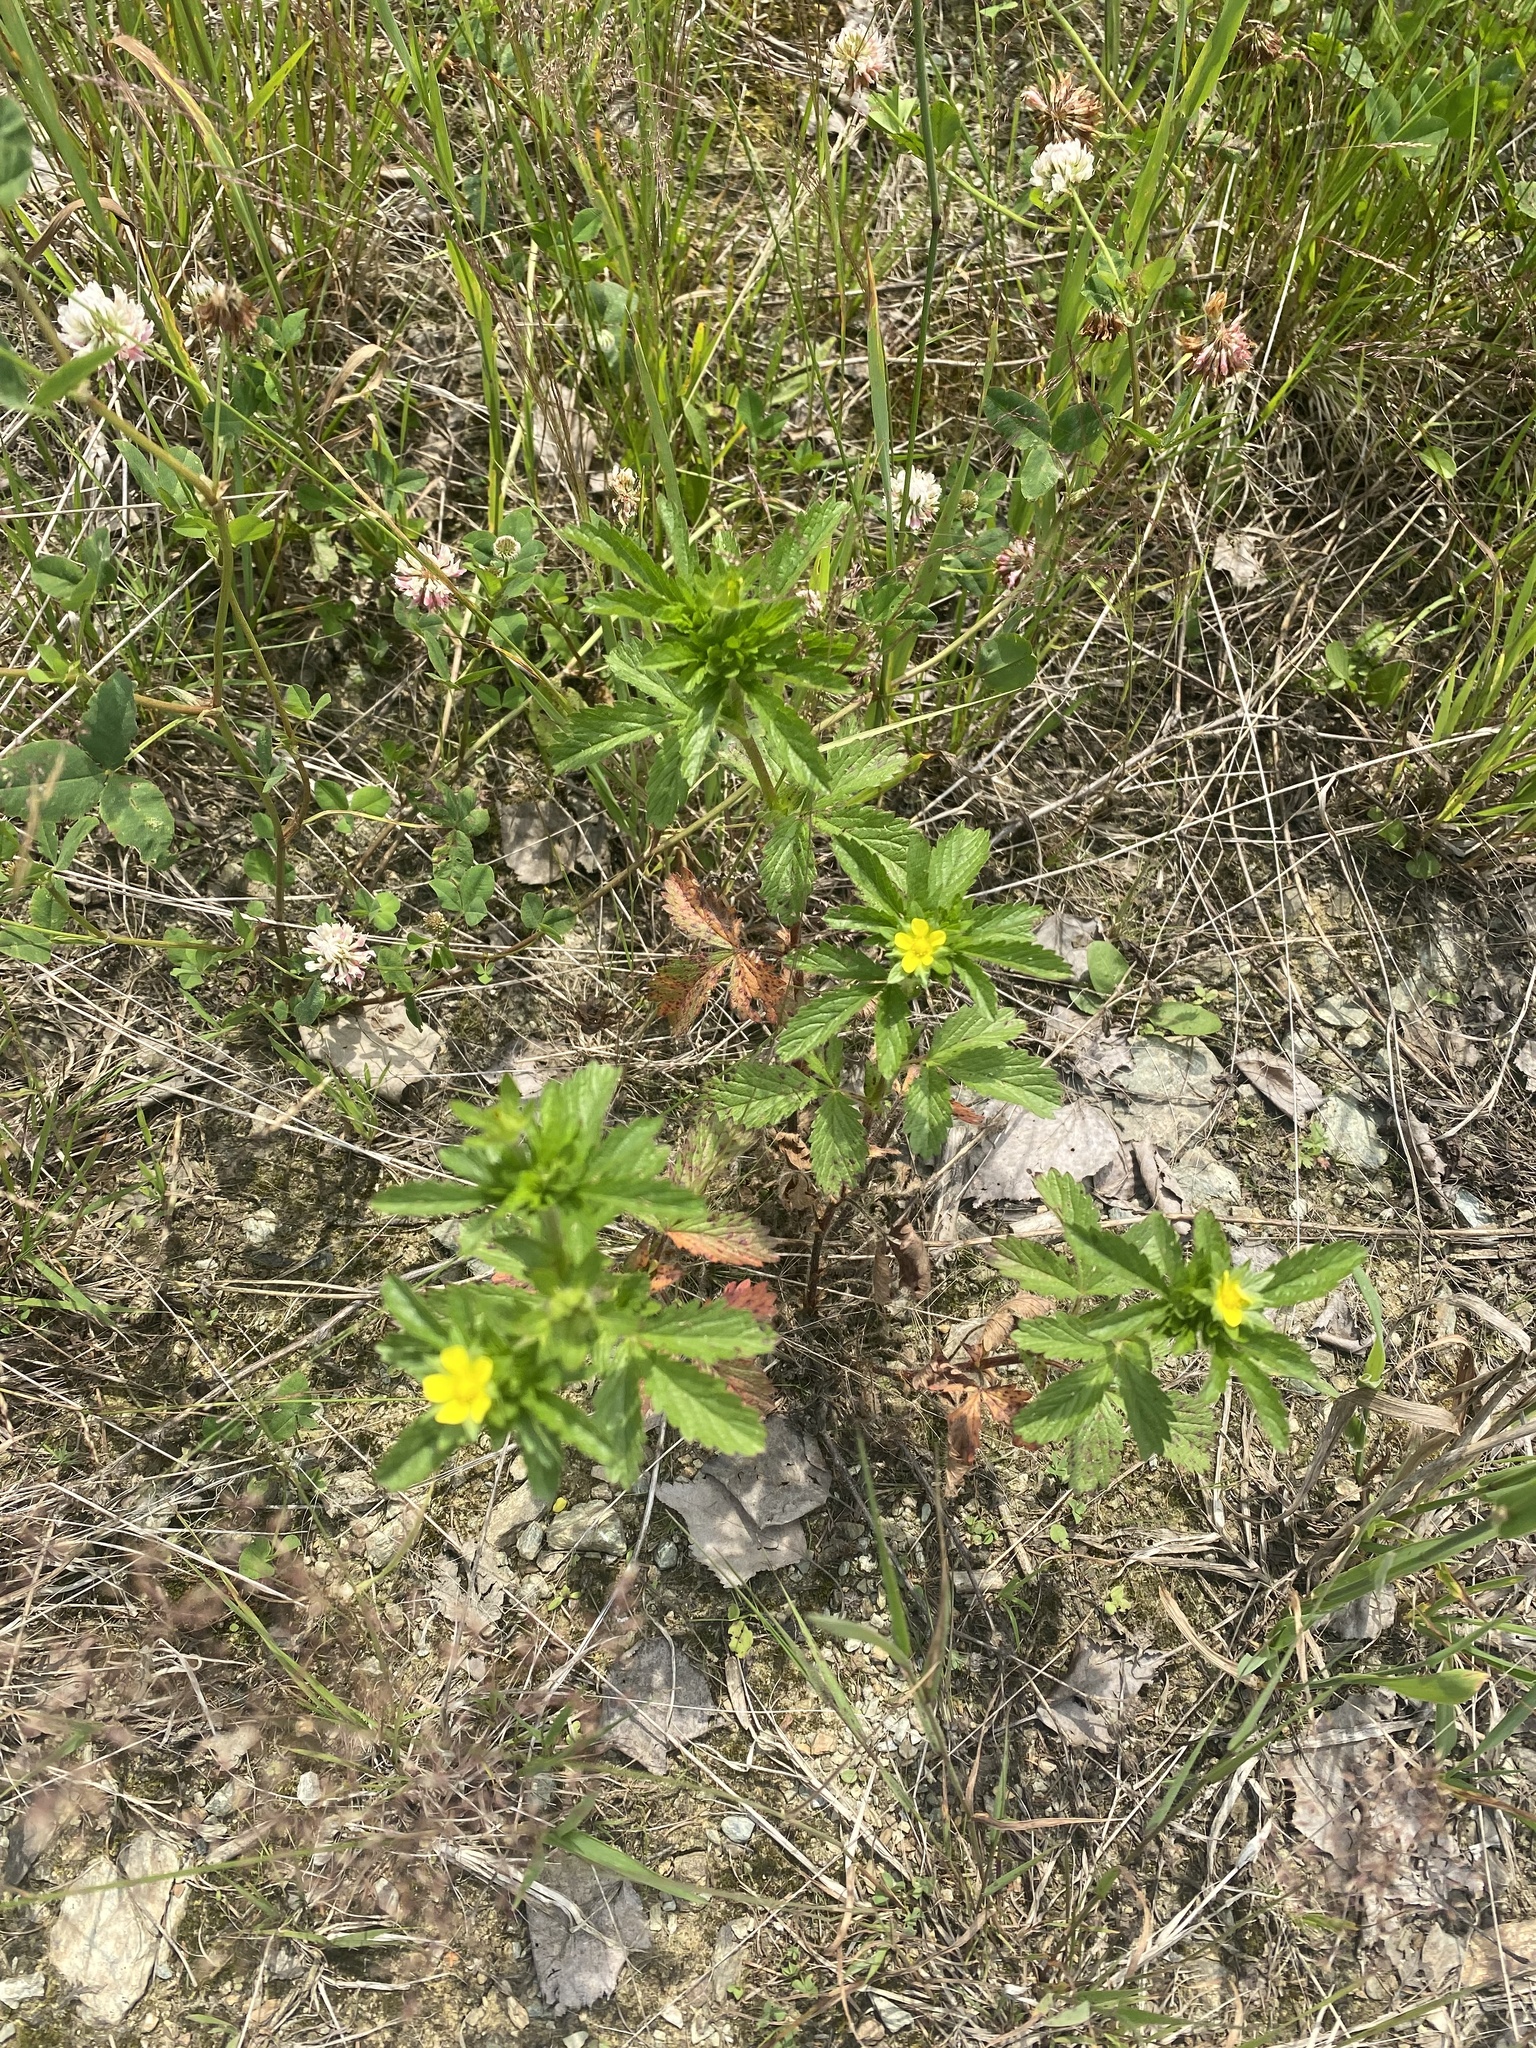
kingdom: Plantae
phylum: Tracheophyta
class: Magnoliopsida
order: Rosales
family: Rosaceae
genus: Potentilla
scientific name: Potentilla norvegica
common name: Ternate-leaved cinquefoil
